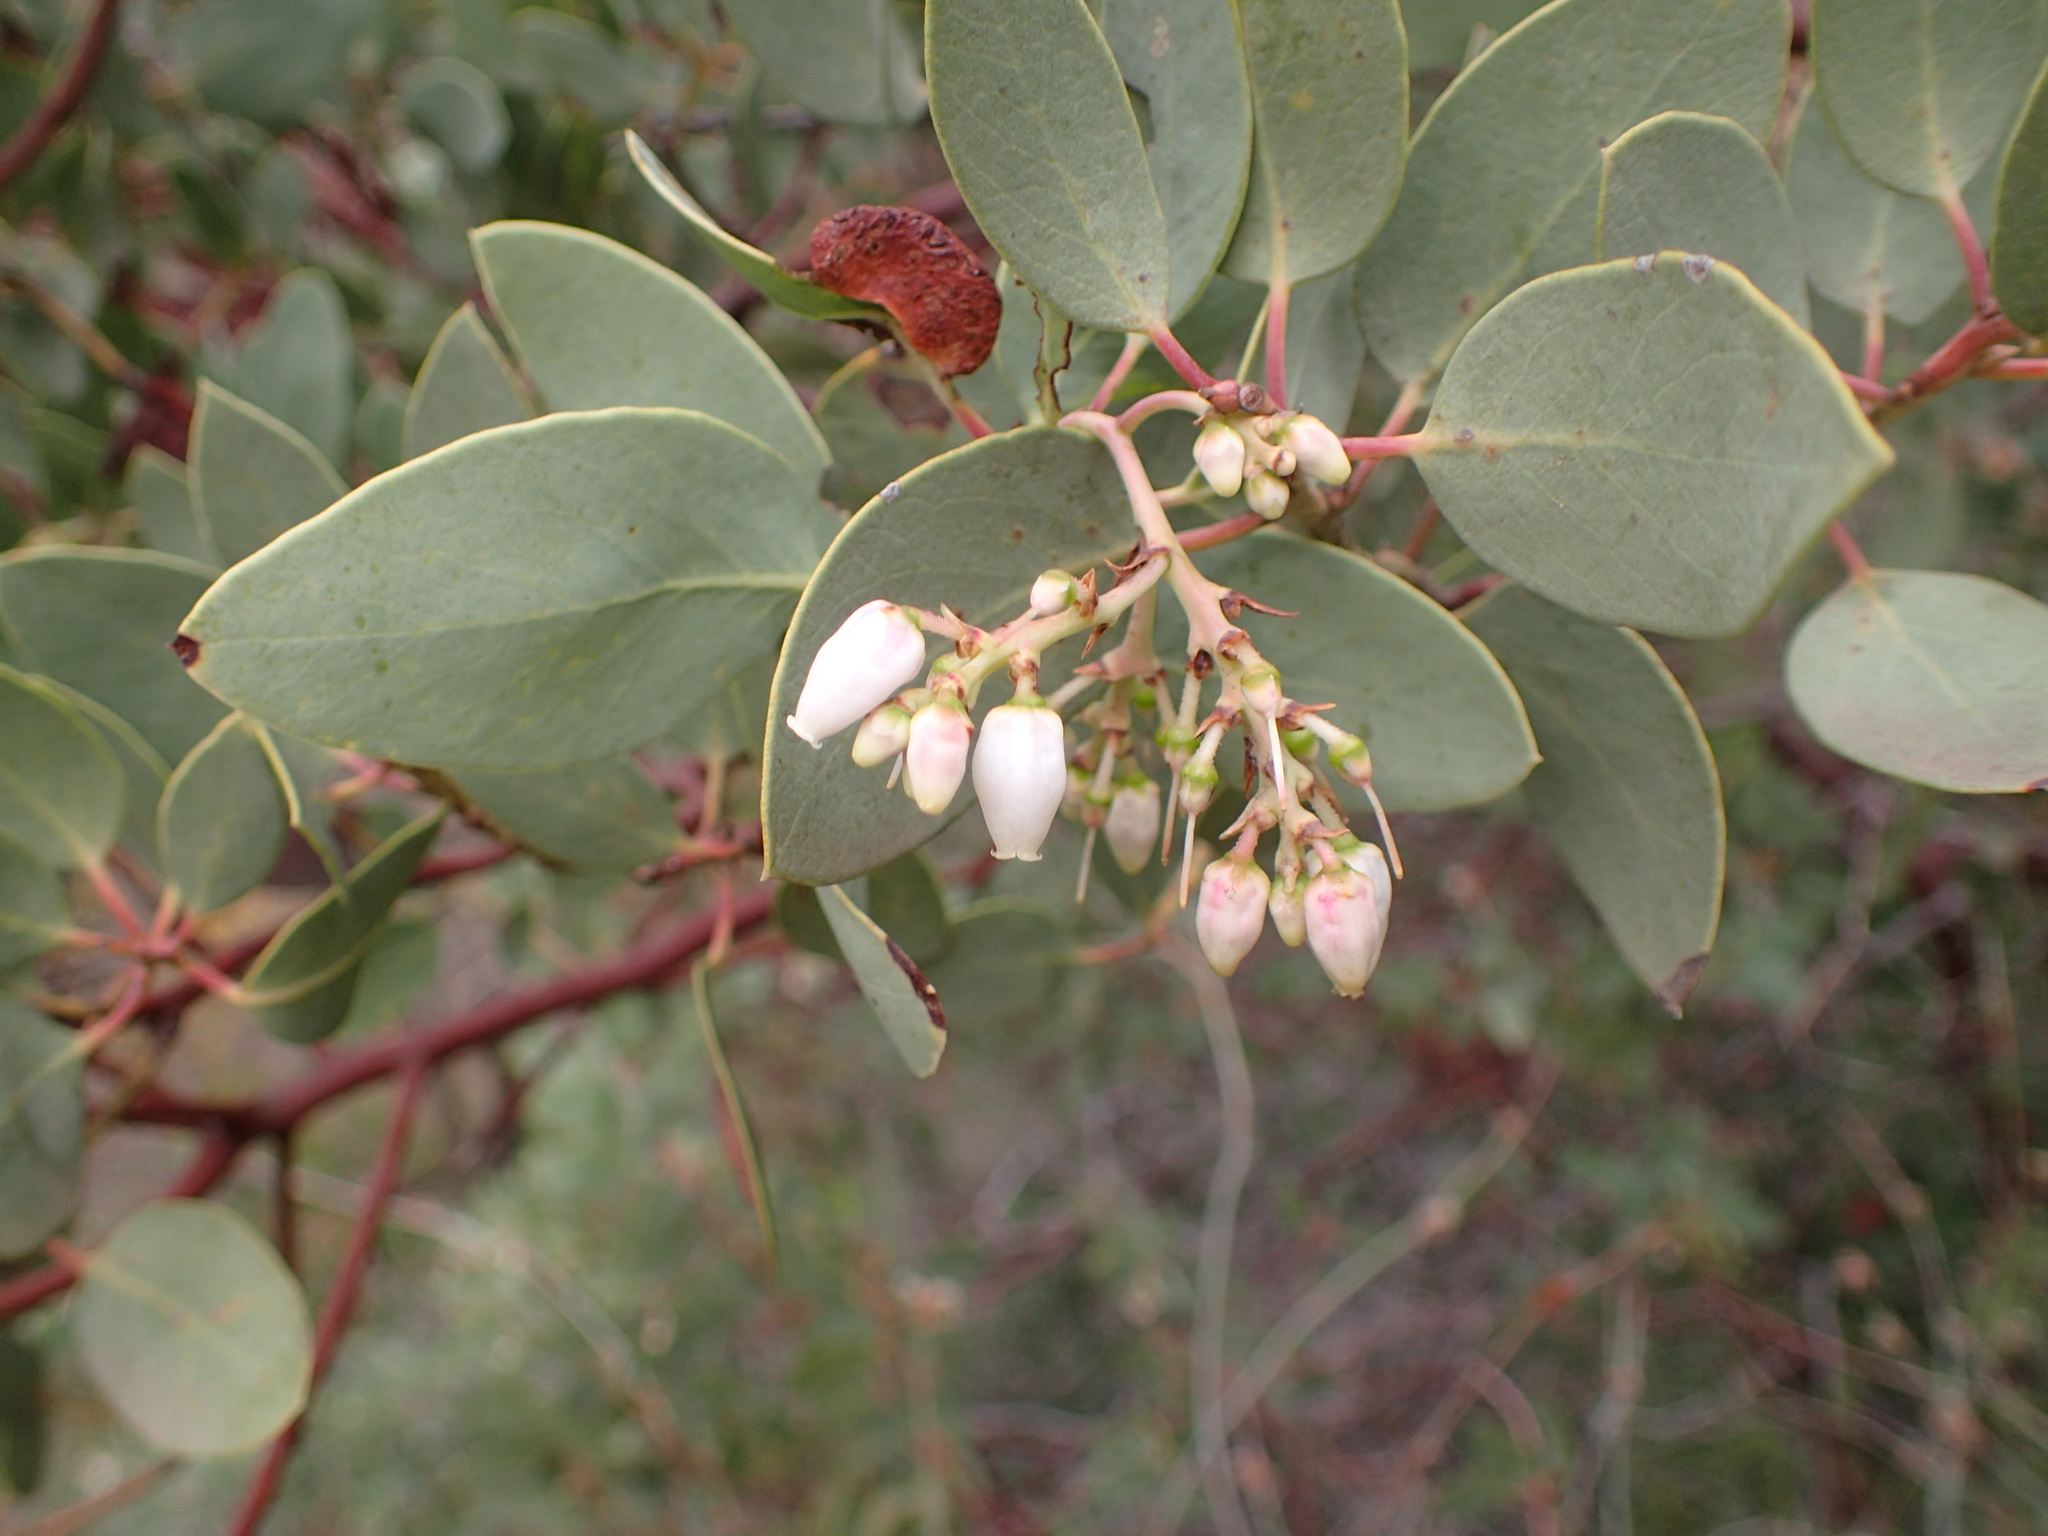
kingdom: Plantae
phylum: Tracheophyta
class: Magnoliopsida
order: Ericales
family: Ericaceae
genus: Arctostaphylos
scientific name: Arctostaphylos glauca
